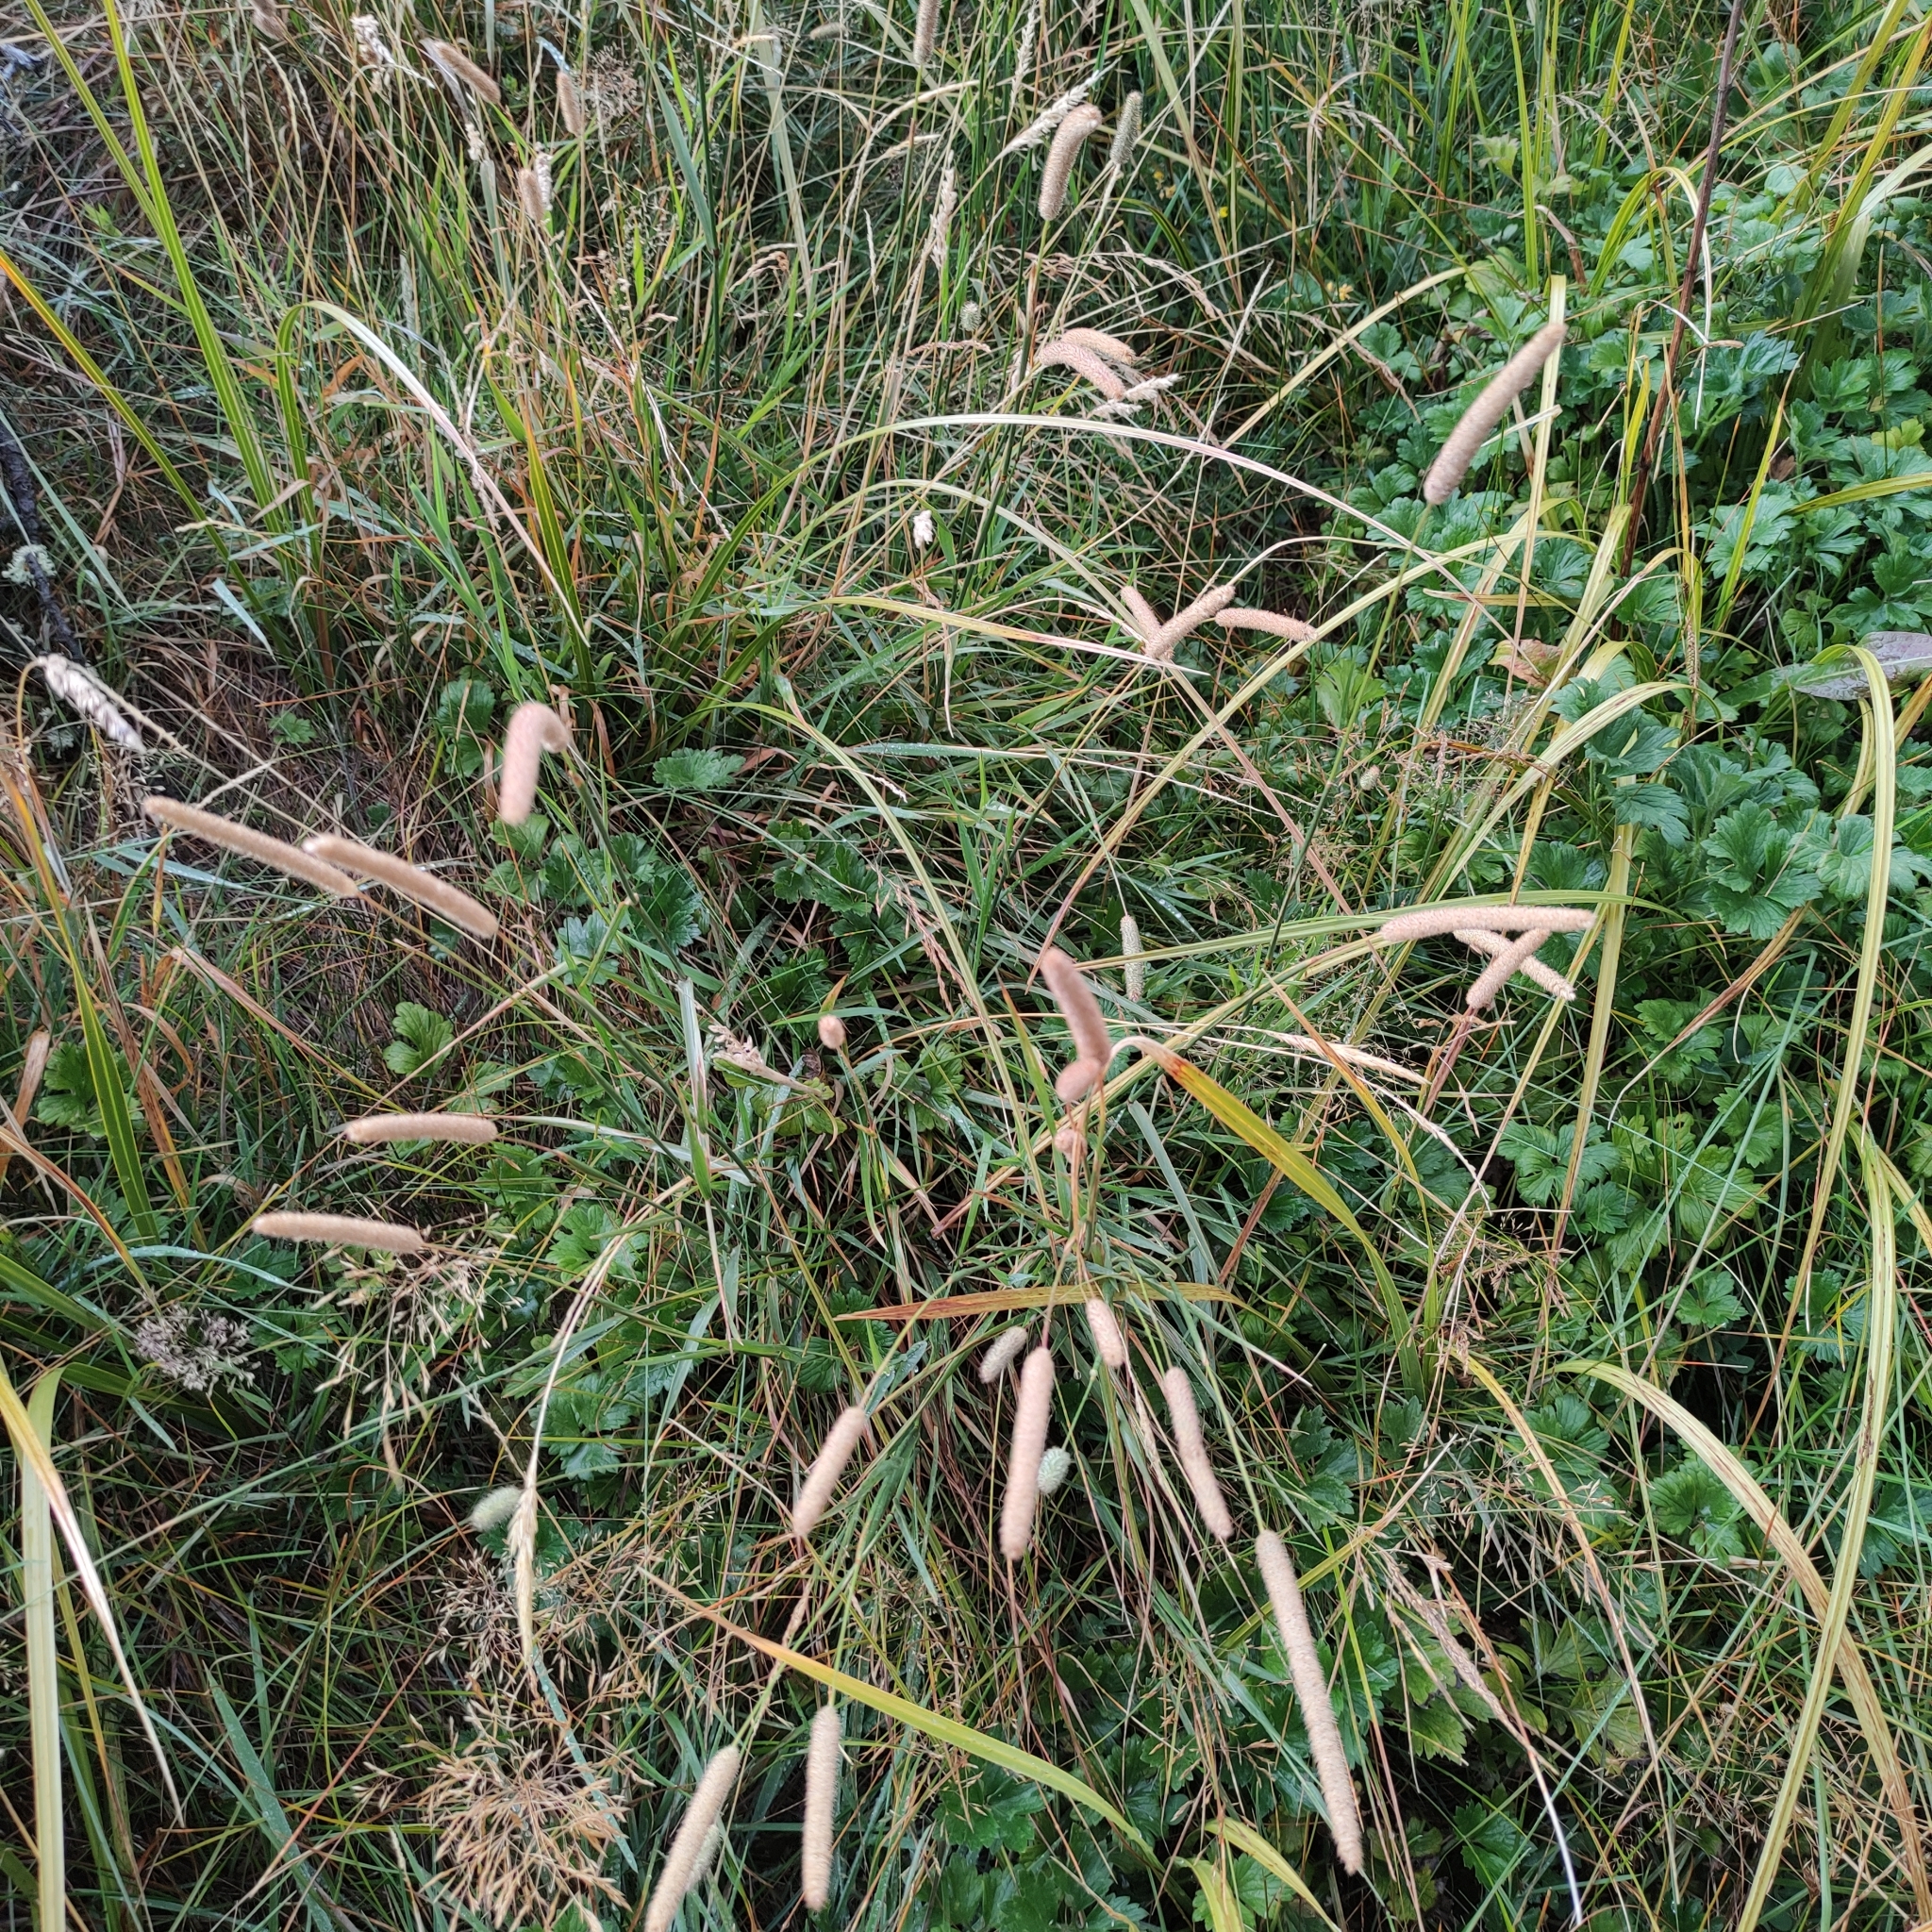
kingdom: Plantae
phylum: Tracheophyta
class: Liliopsida
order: Poales
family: Poaceae
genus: Phleum
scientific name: Phleum pratense
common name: Timothy grass
